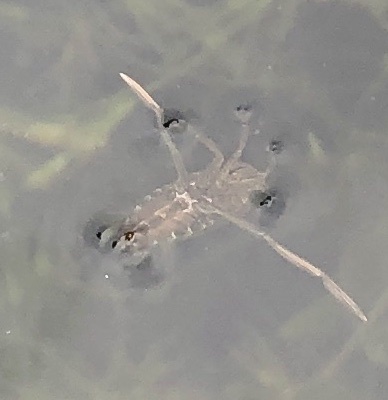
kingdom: Animalia
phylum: Arthropoda
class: Insecta
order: Hemiptera
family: Notonectidae
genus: Notonecta
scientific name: Notonecta
